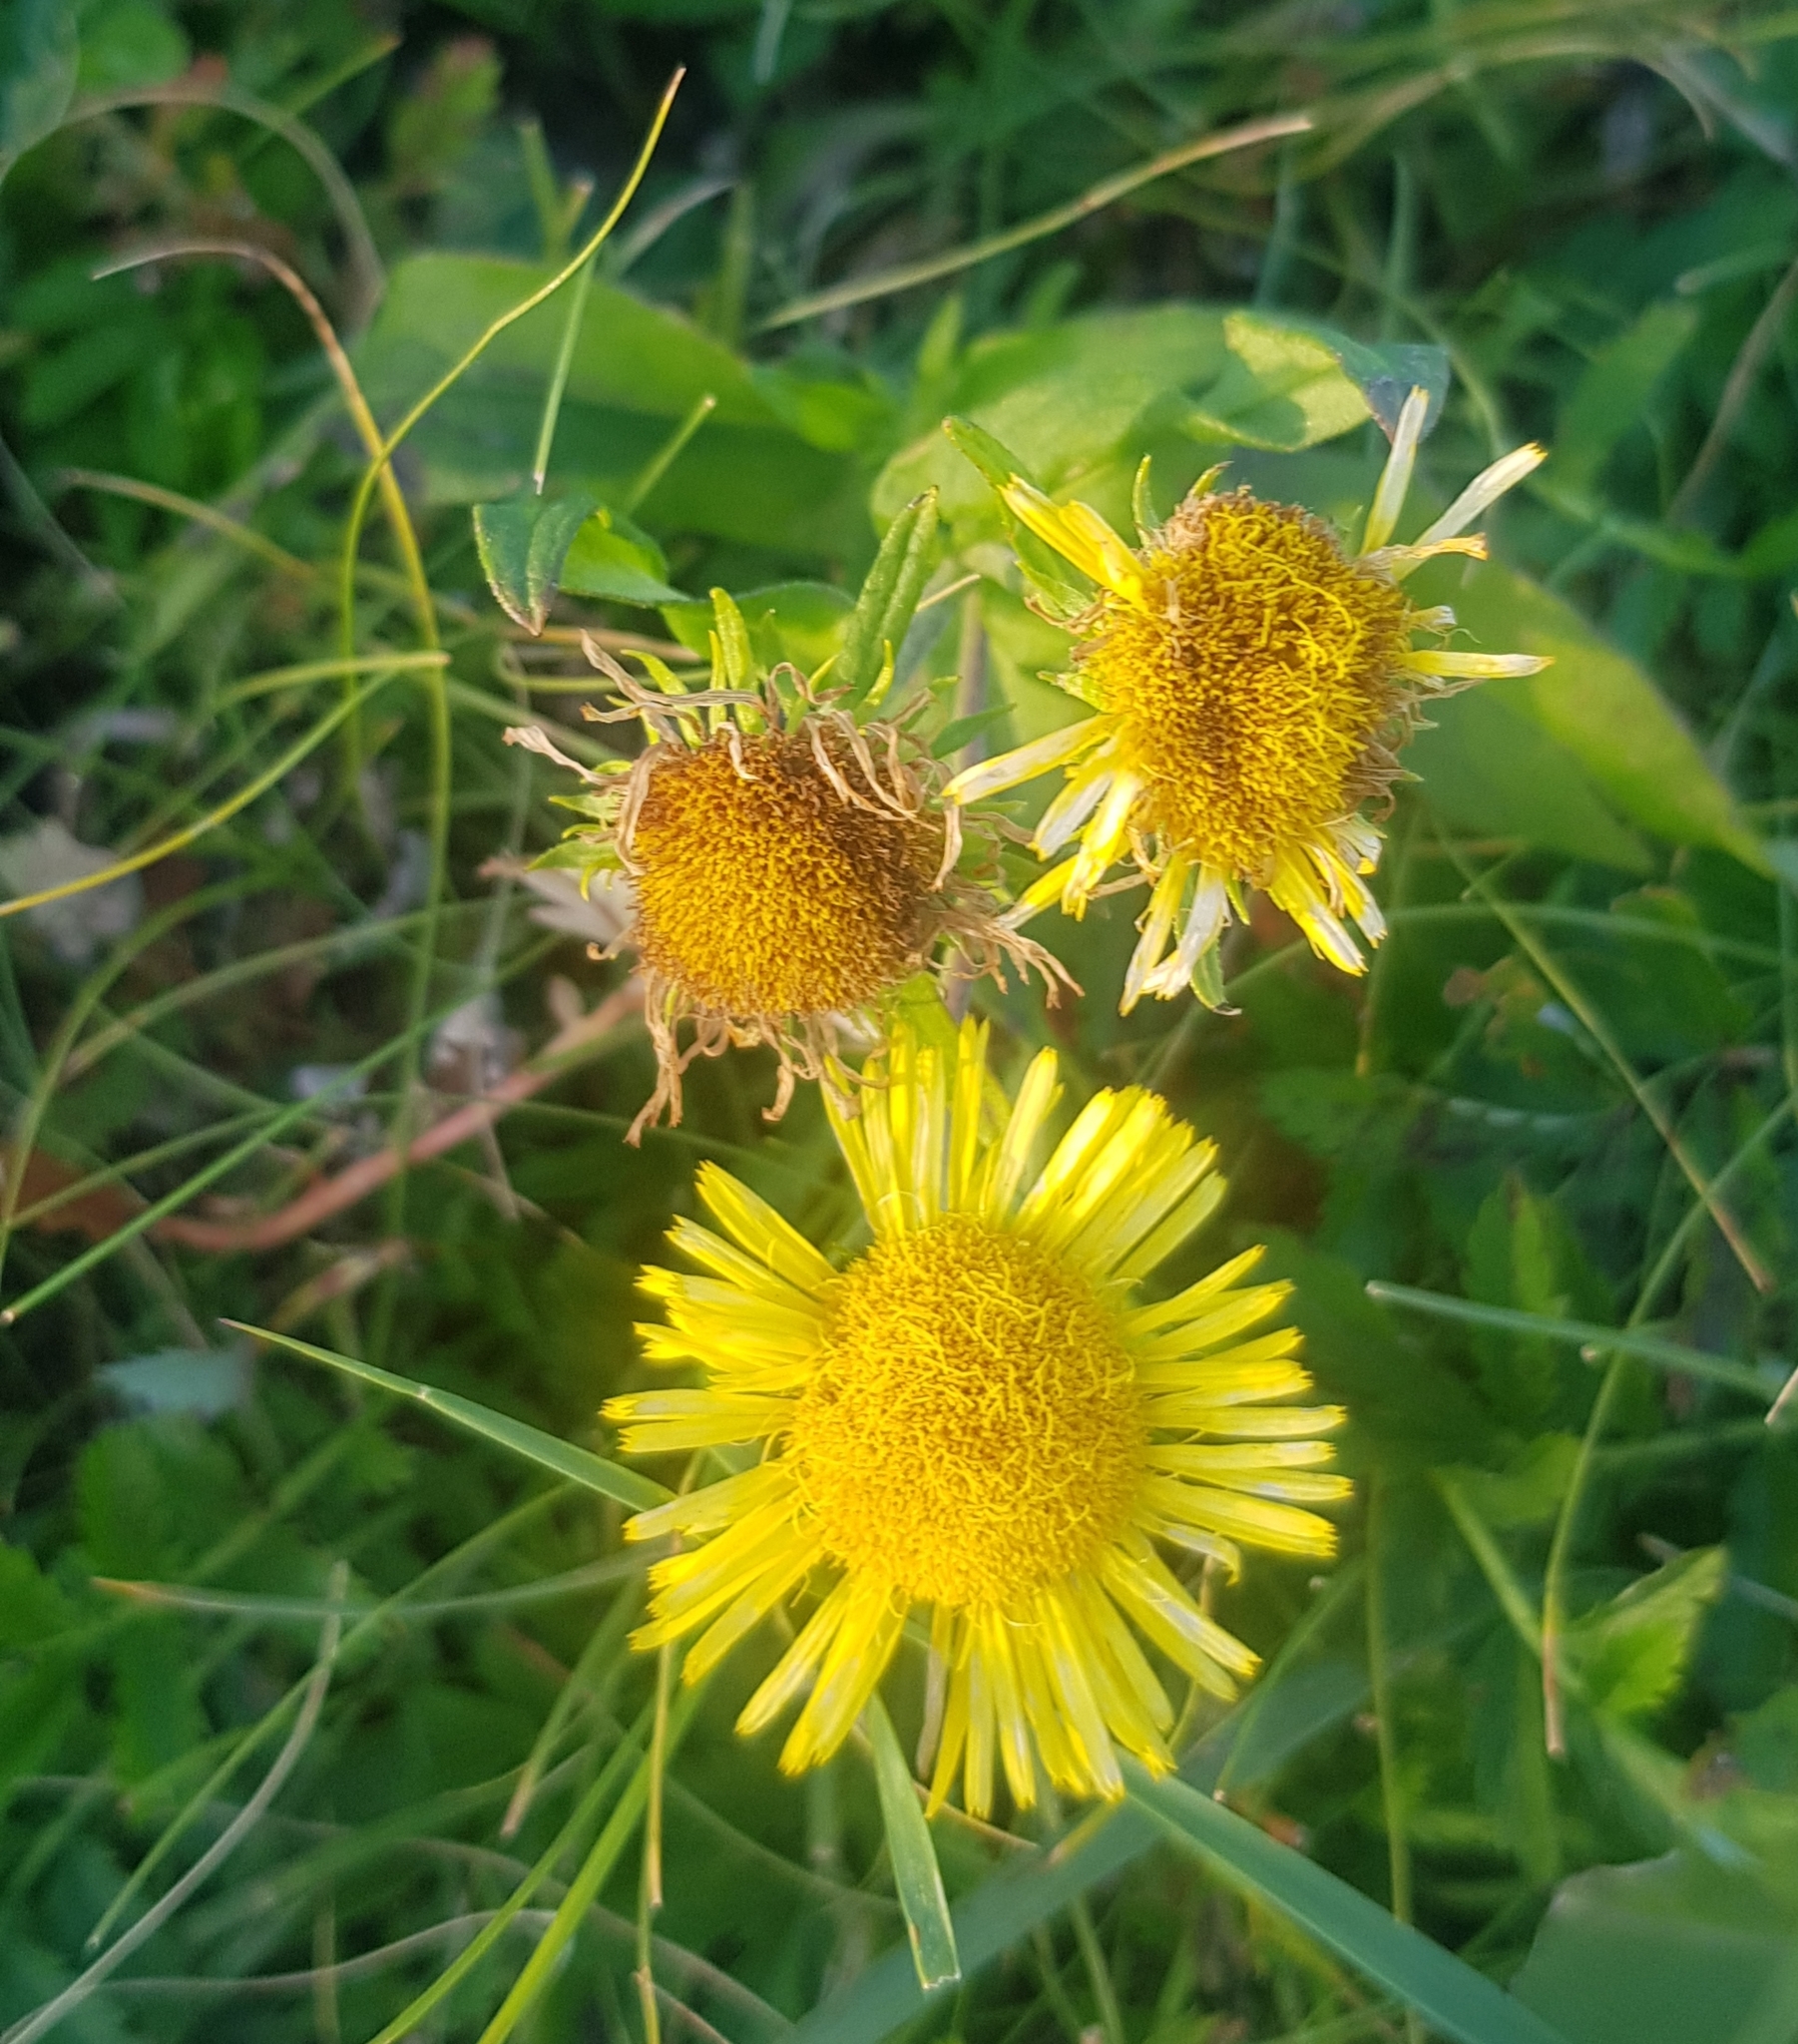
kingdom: Plantae
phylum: Tracheophyta
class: Magnoliopsida
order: Asterales
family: Asteraceae
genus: Pentanema
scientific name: Pentanema britannicum
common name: British elecampane
